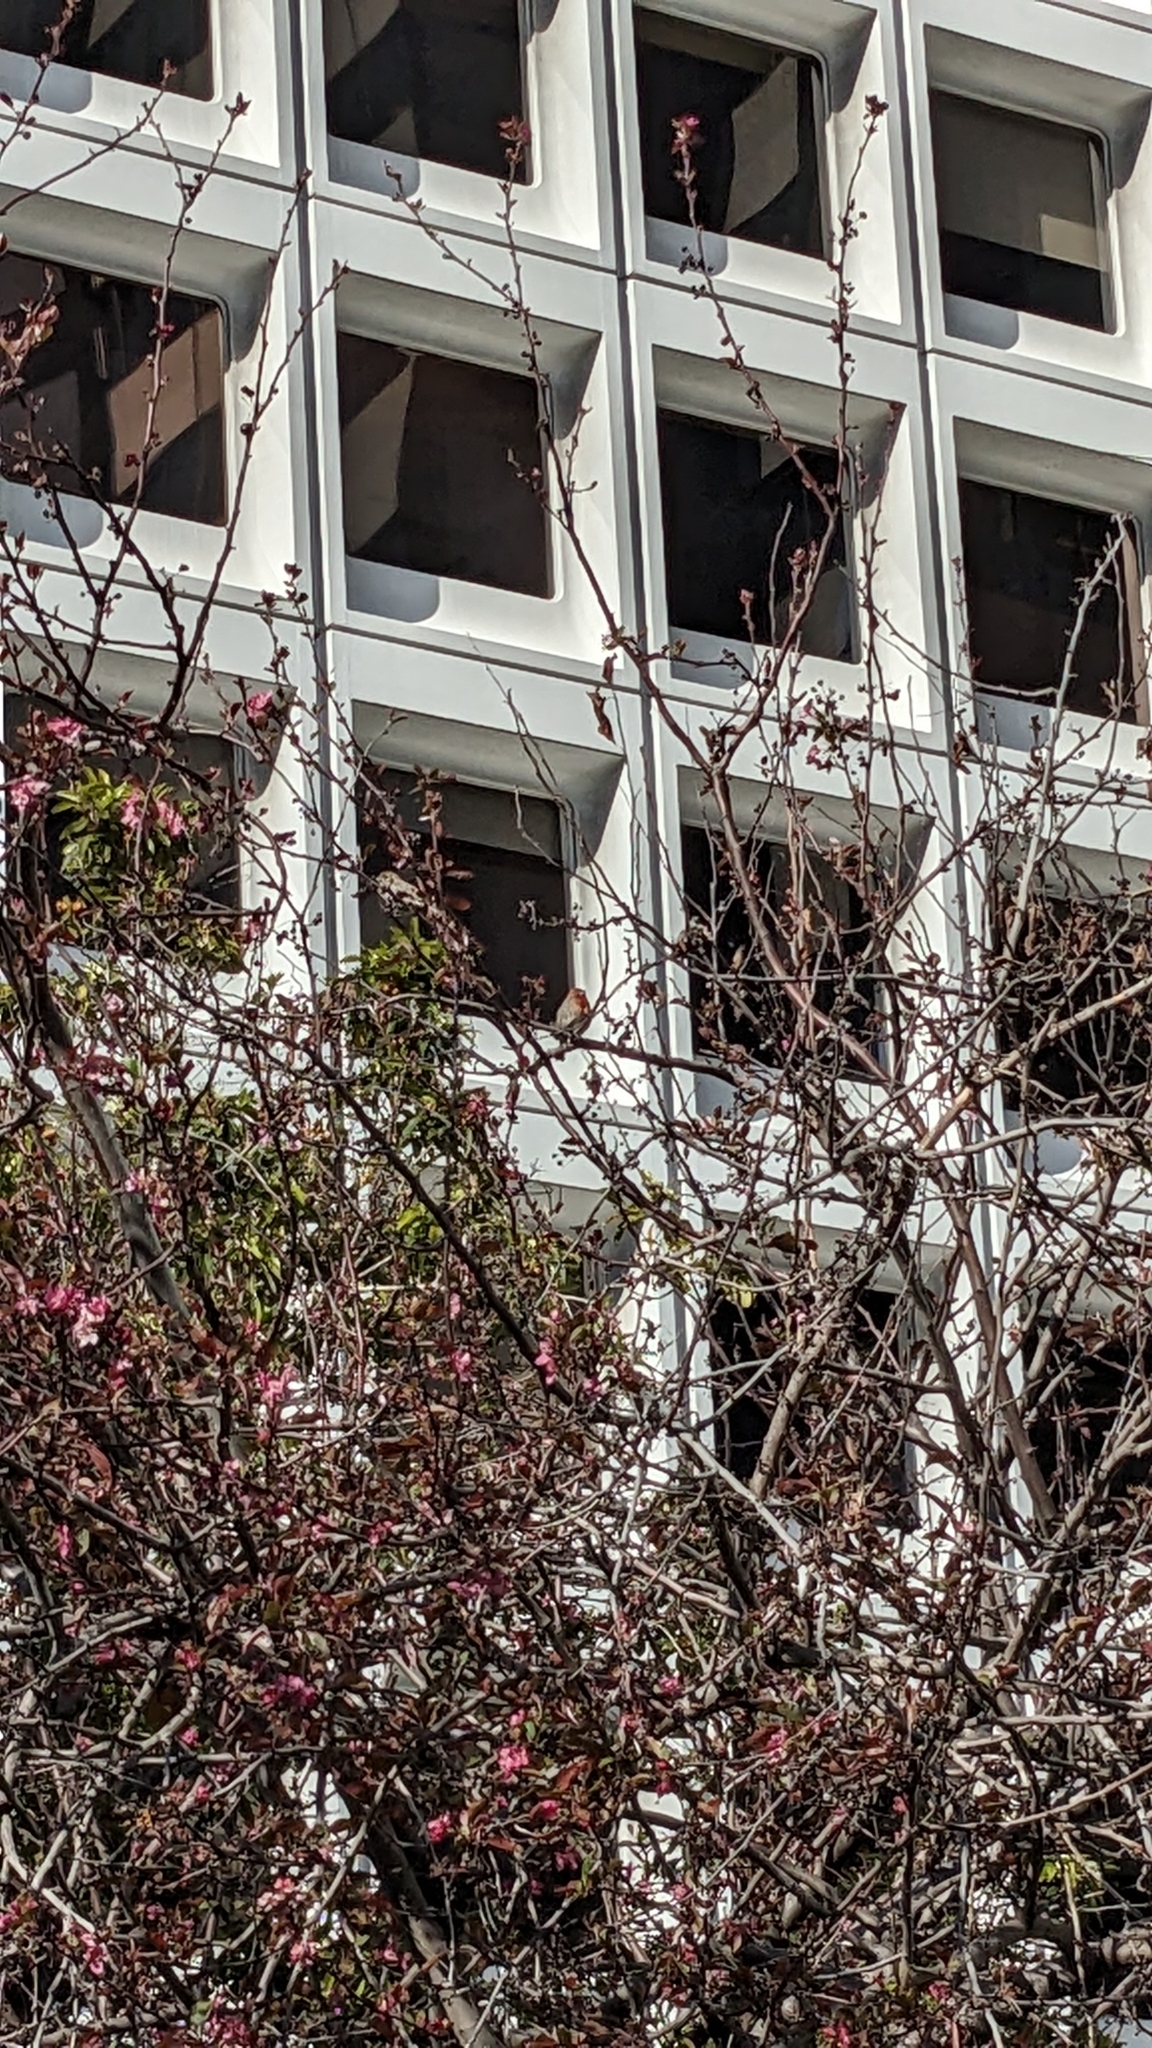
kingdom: Animalia
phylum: Chordata
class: Aves
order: Passeriformes
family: Fringillidae
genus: Haemorhous
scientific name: Haemorhous mexicanus
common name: House finch
